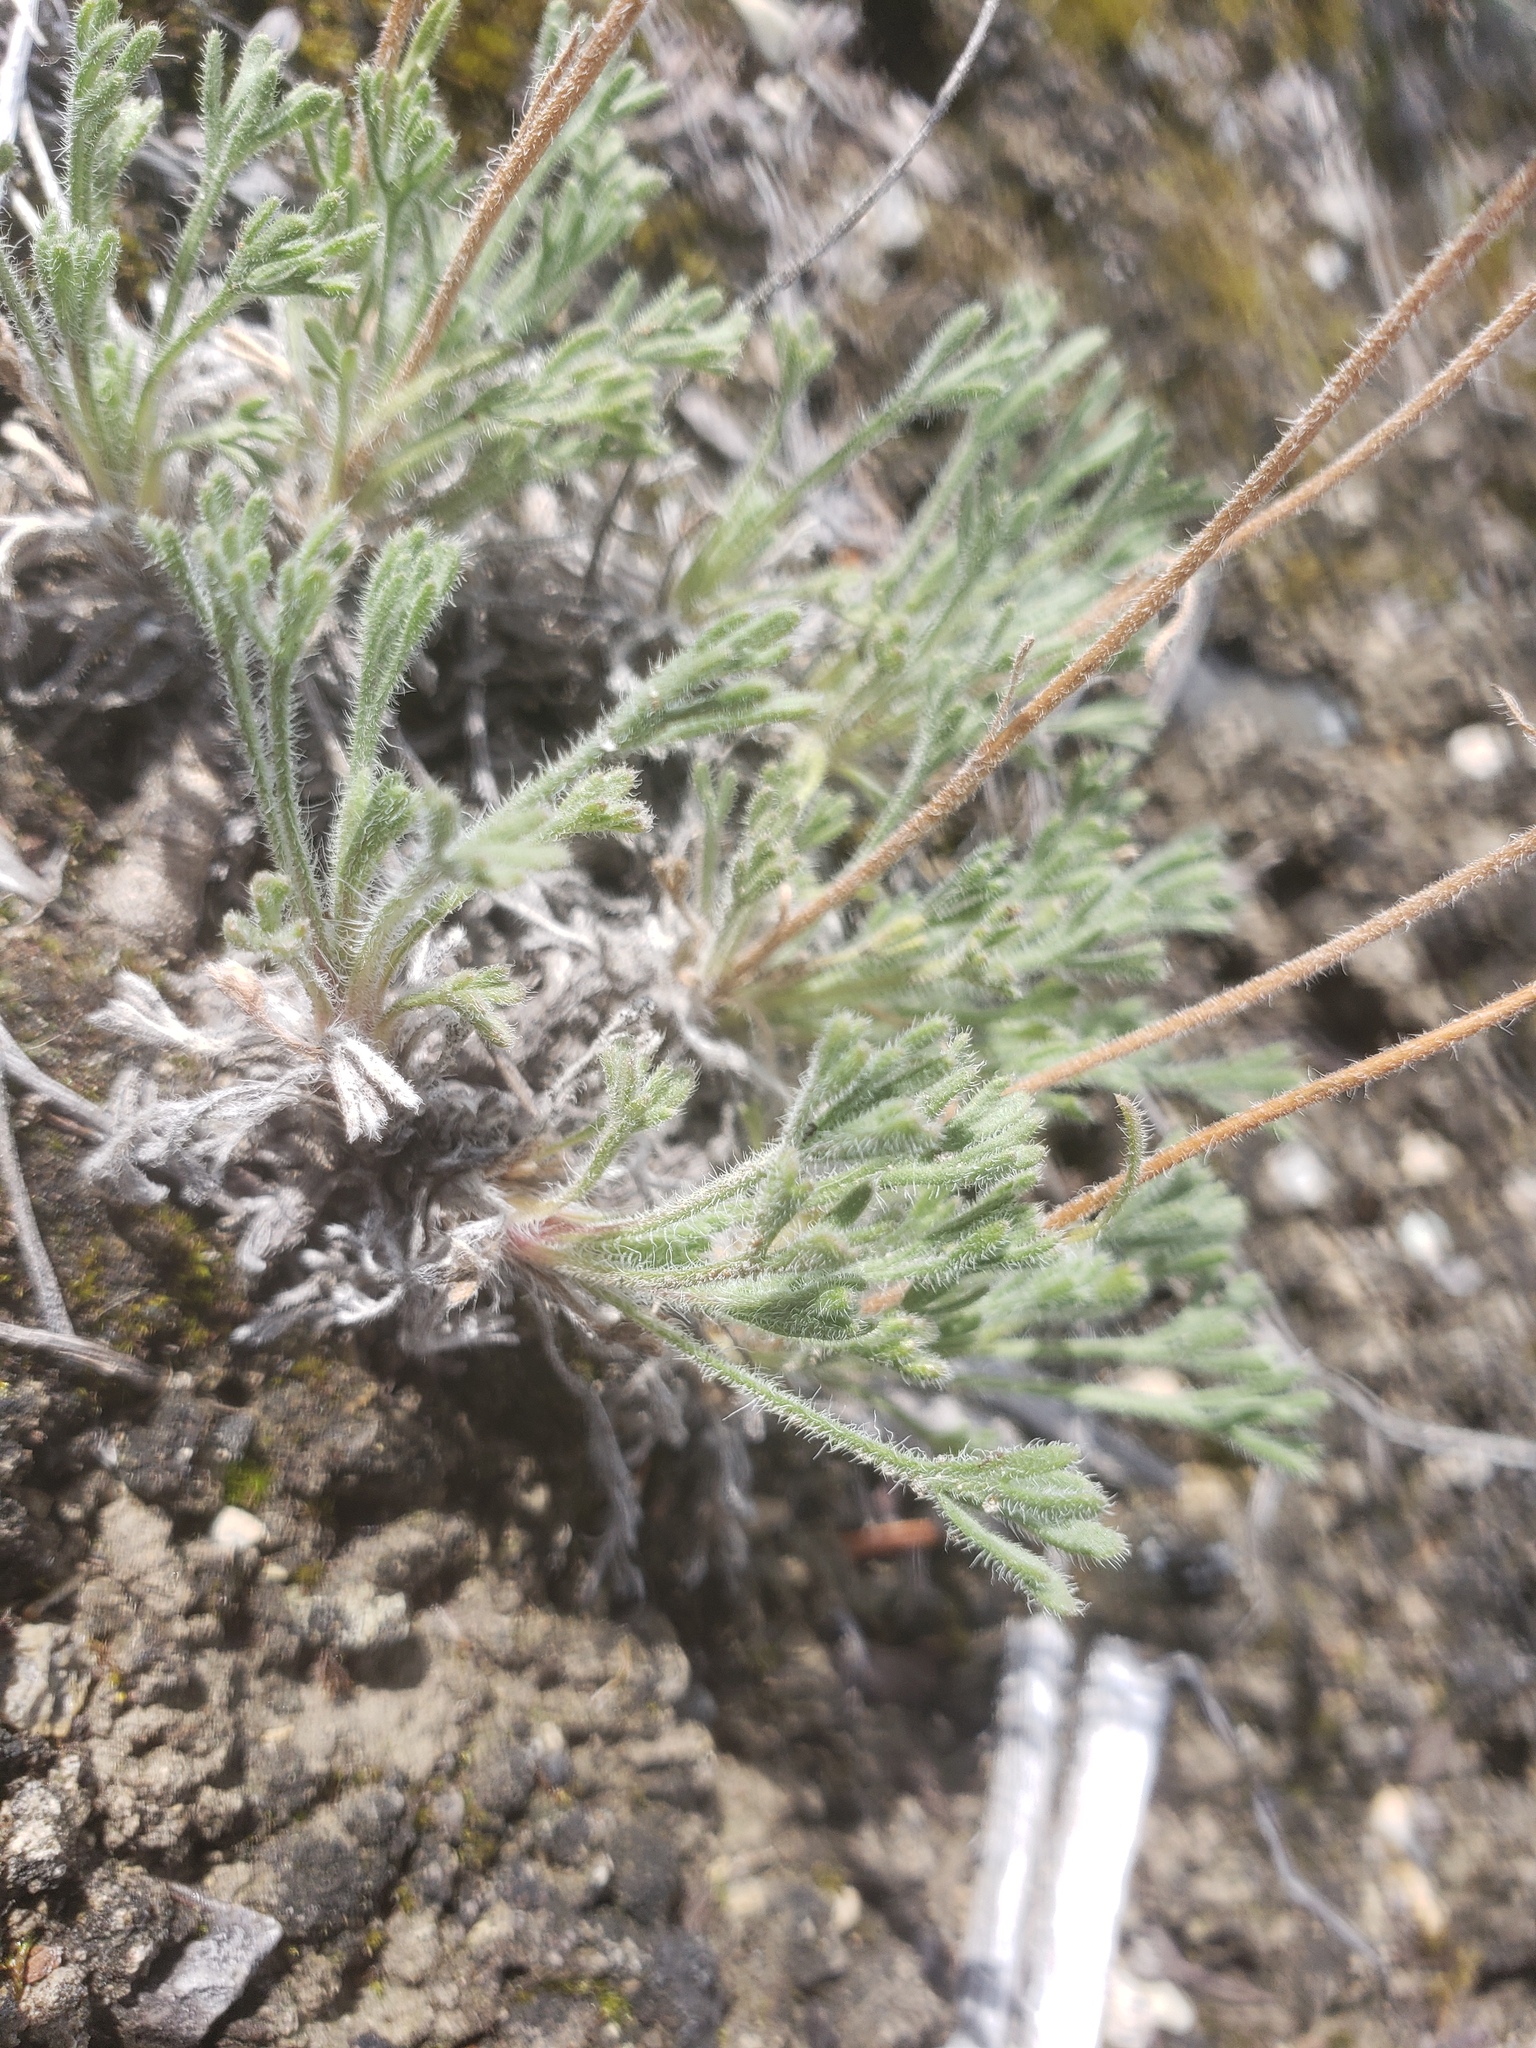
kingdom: Plantae
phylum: Tracheophyta
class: Magnoliopsida
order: Asterales
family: Asteraceae
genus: Erigeron
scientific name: Erigeron compositus
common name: Dwarf mountain fleabane
